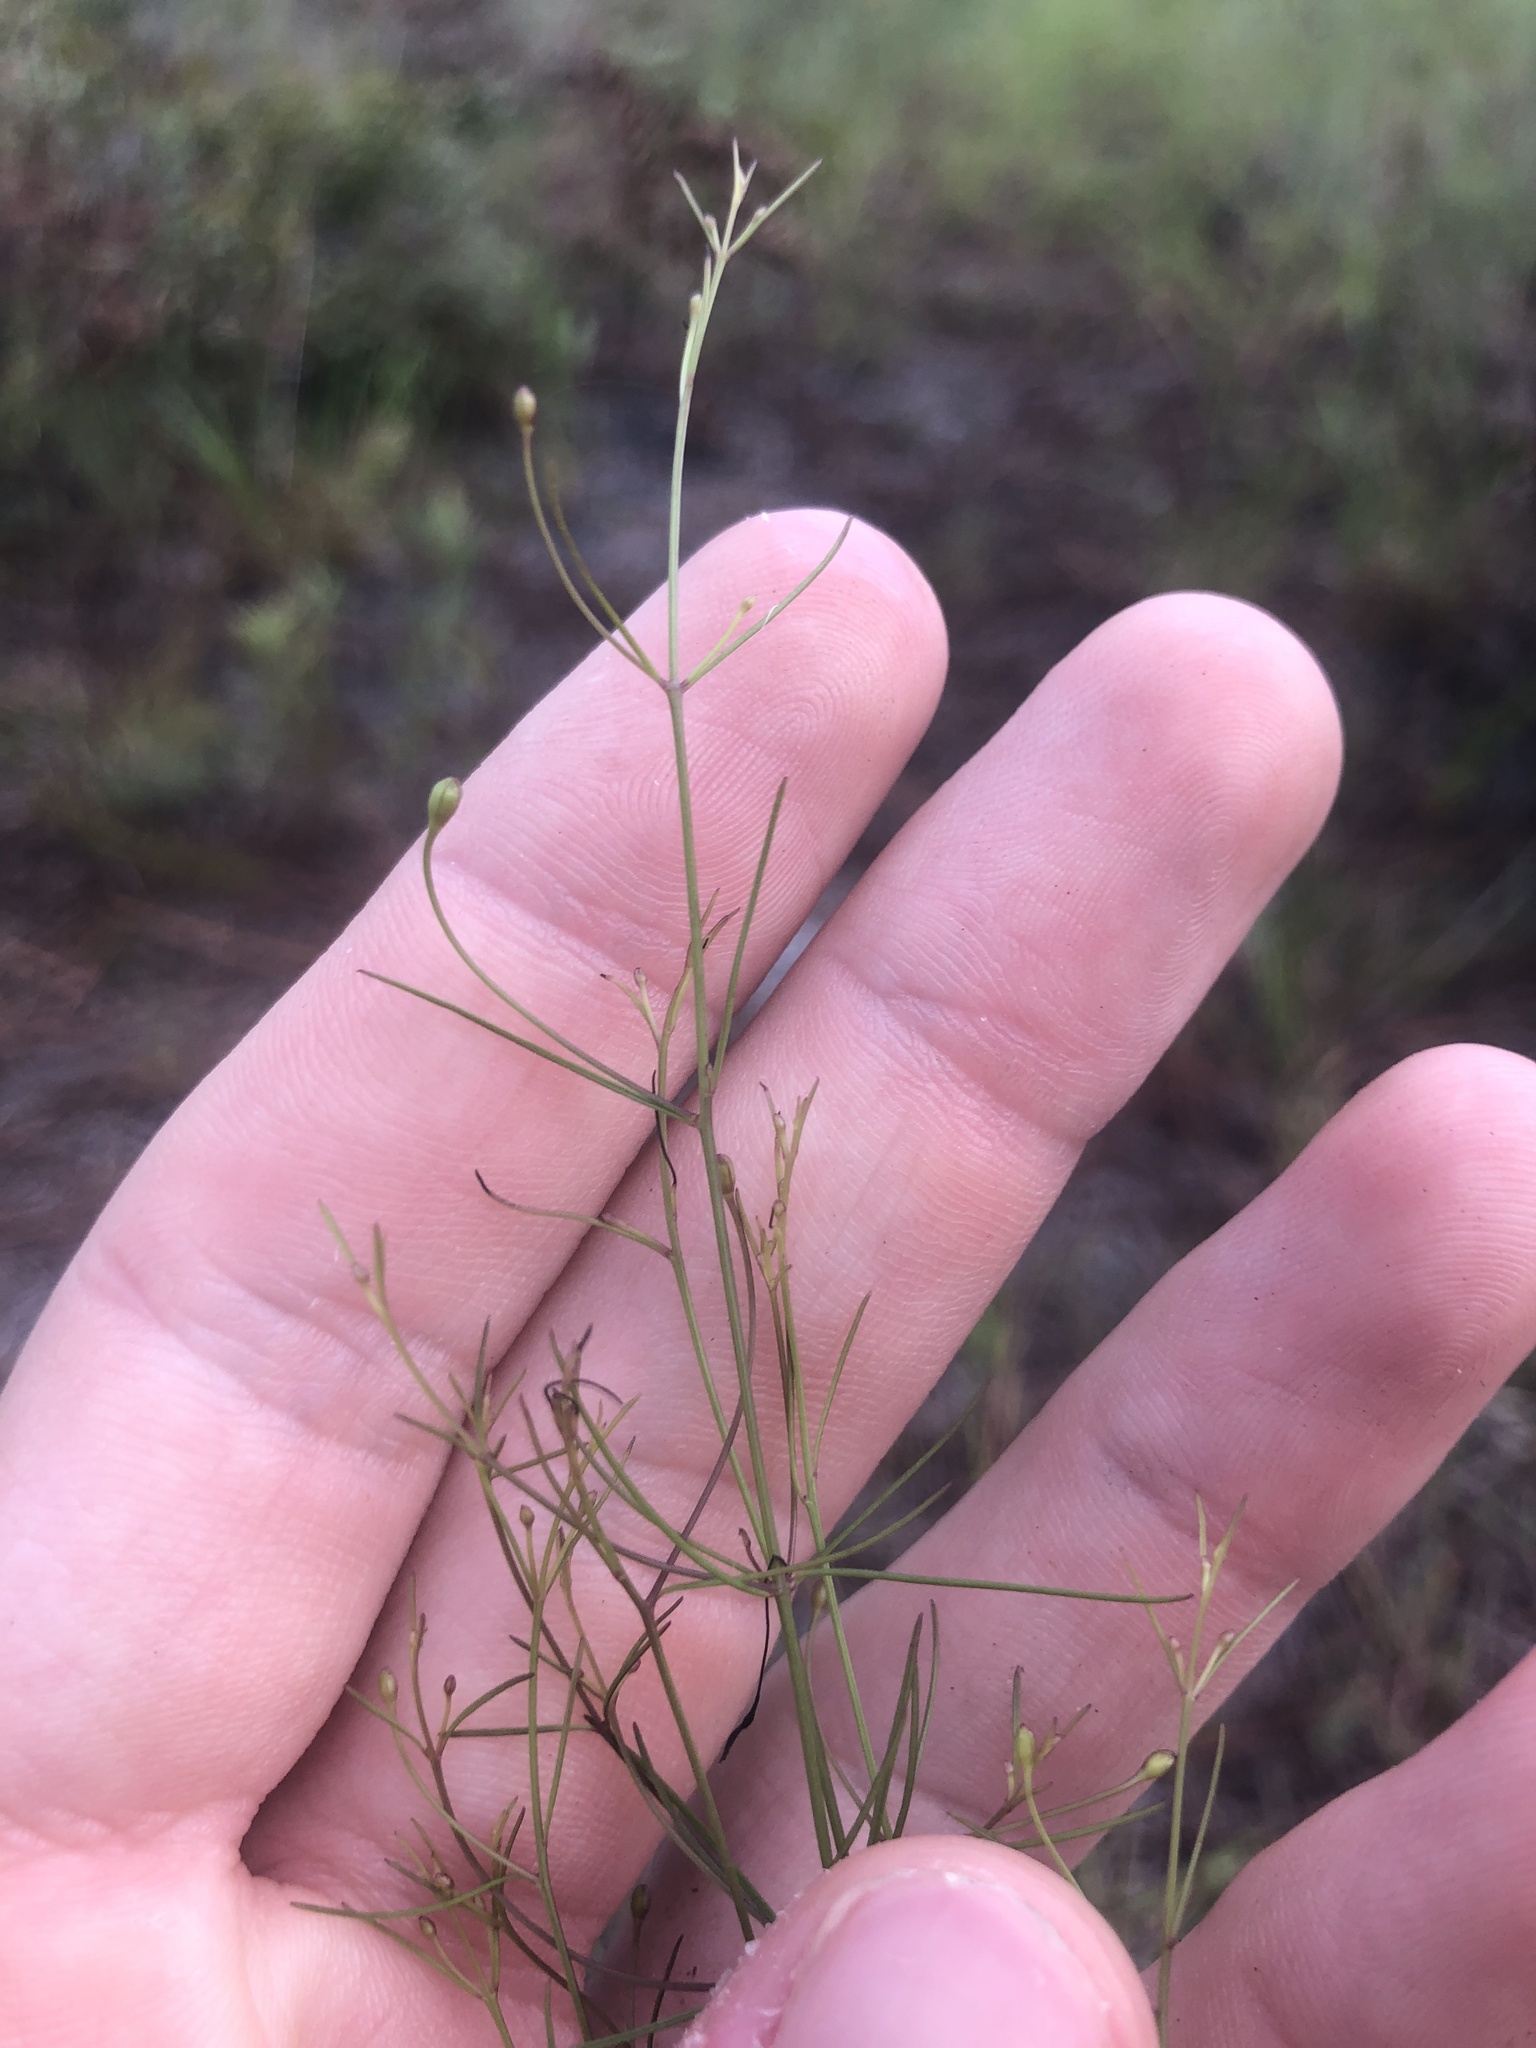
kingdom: Plantae
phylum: Tracheophyta
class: Magnoliopsida
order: Lamiales
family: Orobanchaceae
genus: Agalinis
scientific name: Agalinis setacea
